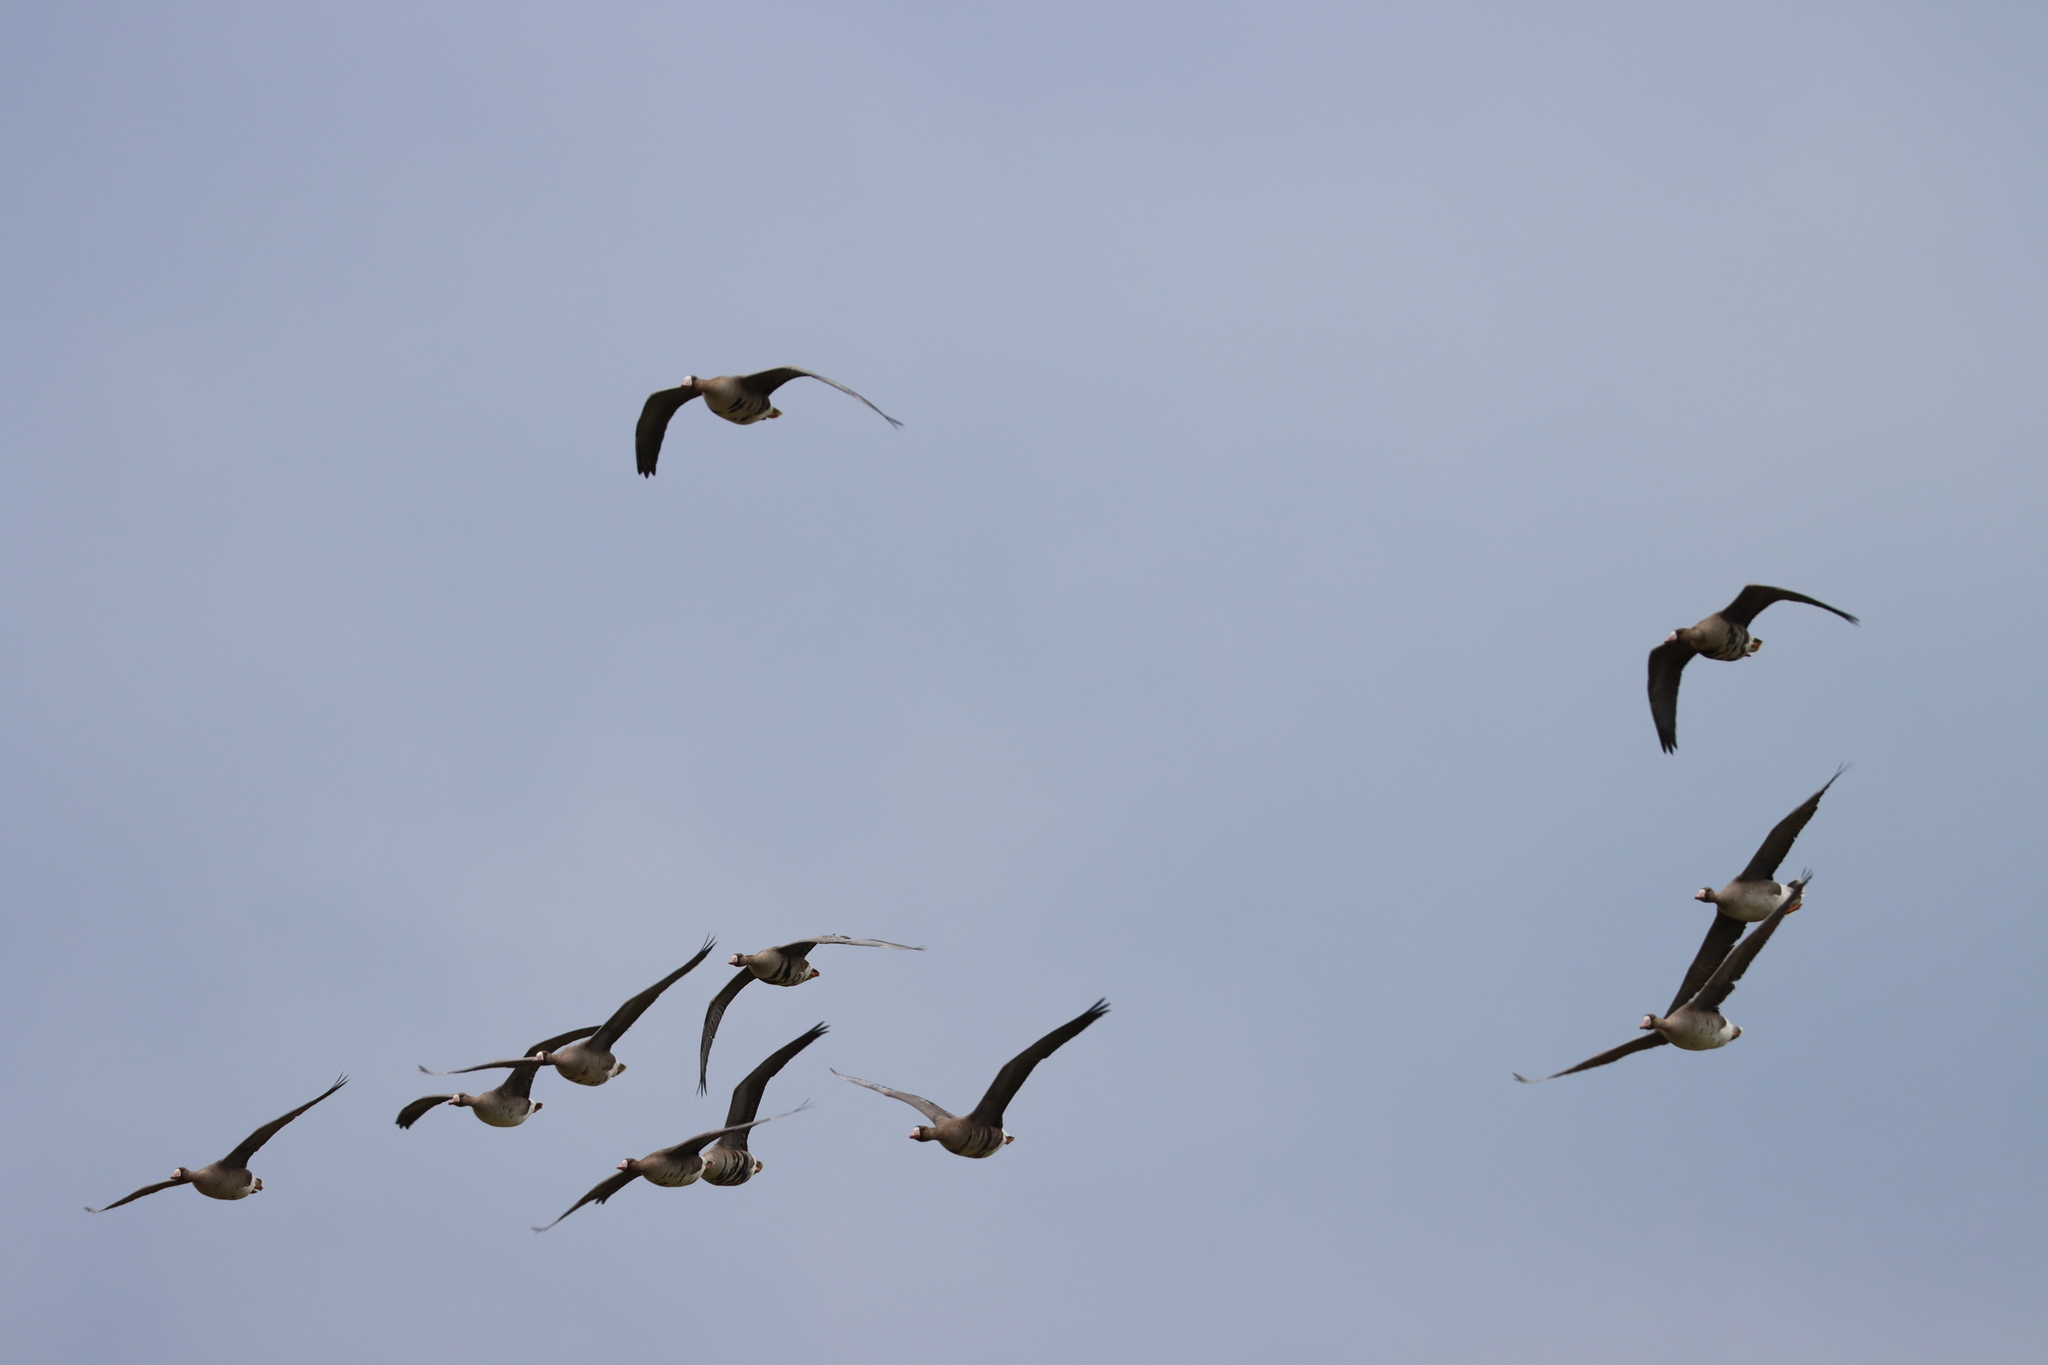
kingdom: Animalia
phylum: Chordata
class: Aves
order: Anseriformes
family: Anatidae
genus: Anser
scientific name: Anser albifrons
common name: Greater white-fronted goose
